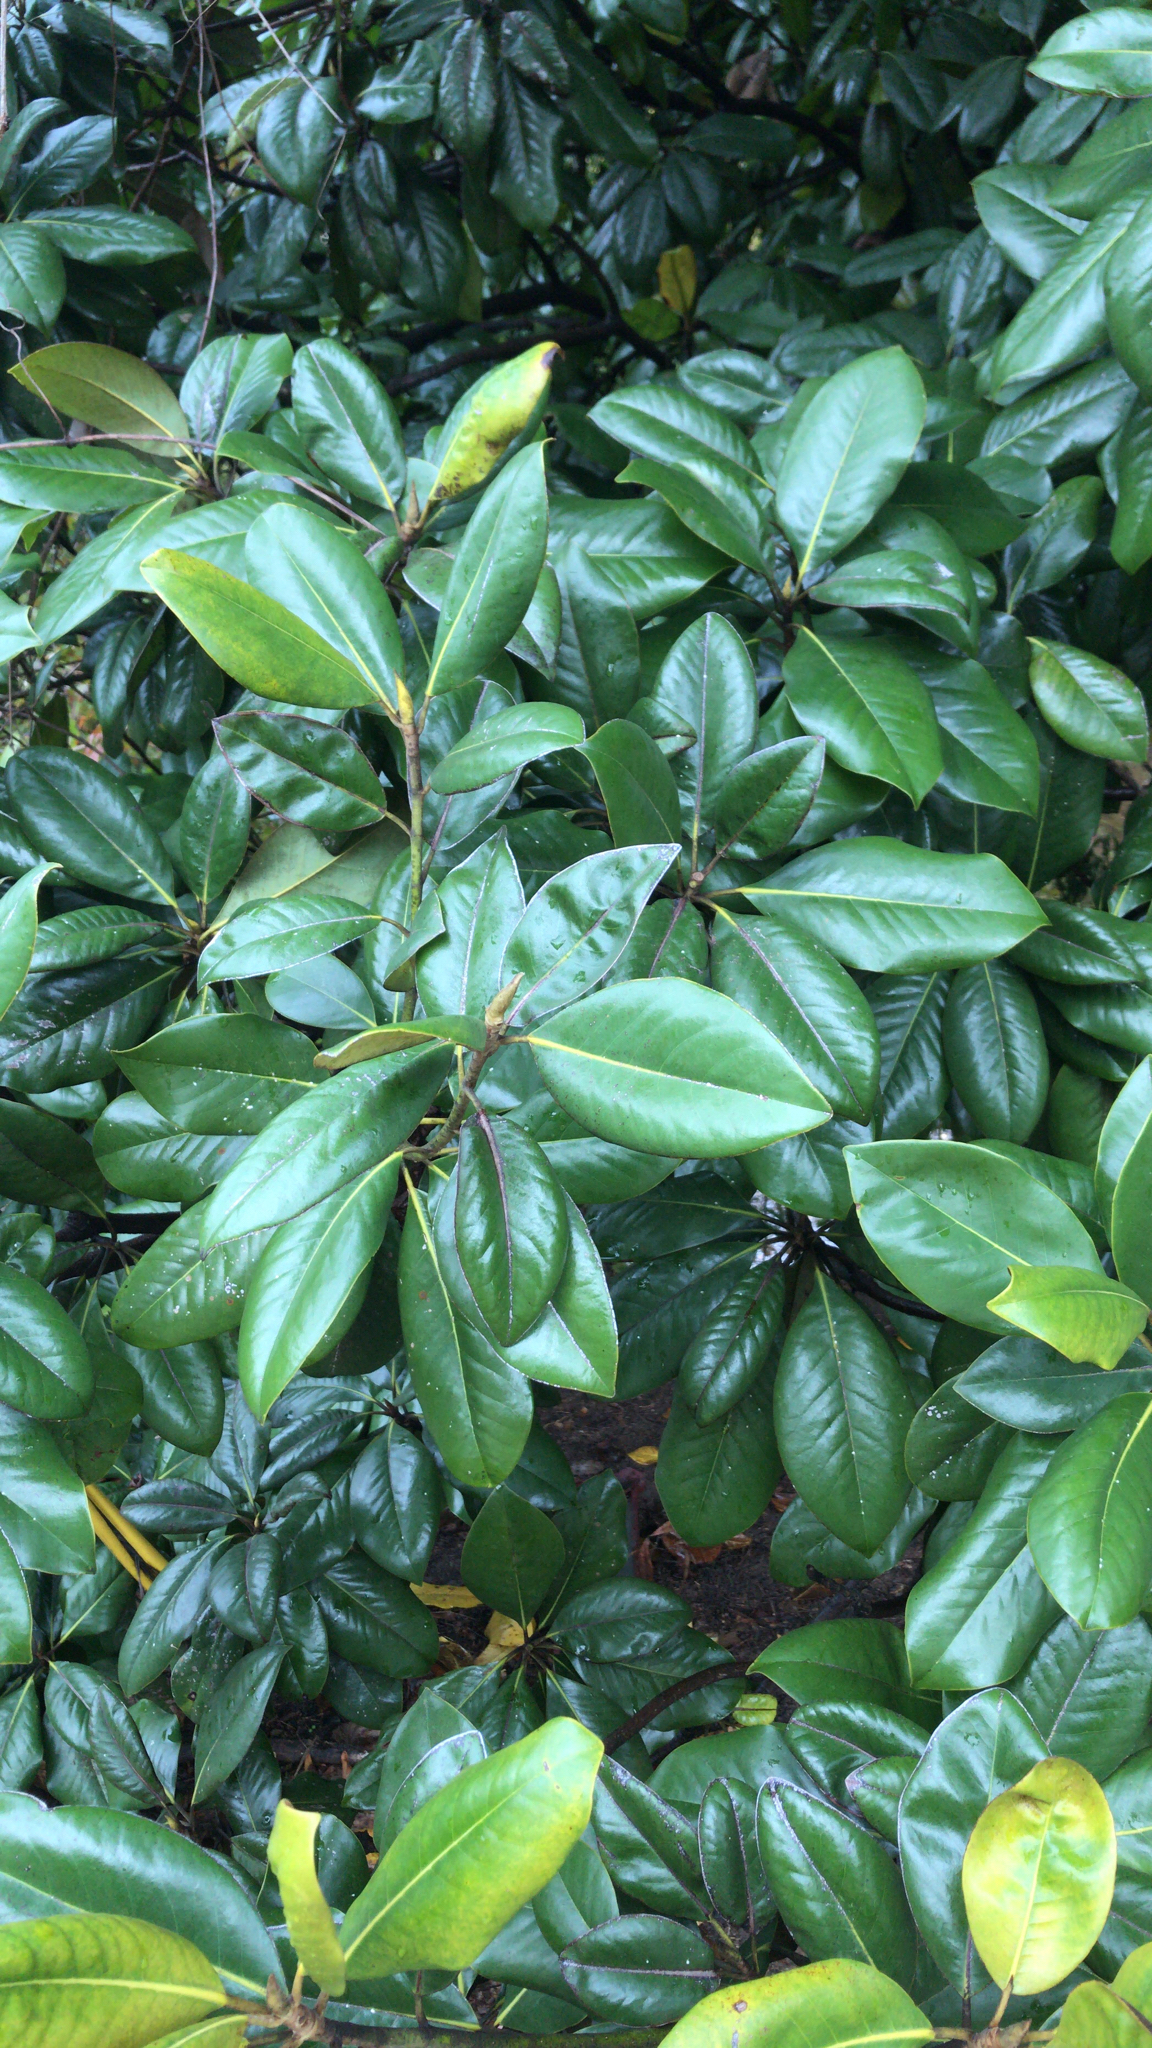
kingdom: Plantae
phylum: Tracheophyta
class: Magnoliopsida
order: Magnoliales
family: Magnoliaceae
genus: Magnolia
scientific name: Magnolia grandiflora
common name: Southern magnolia
